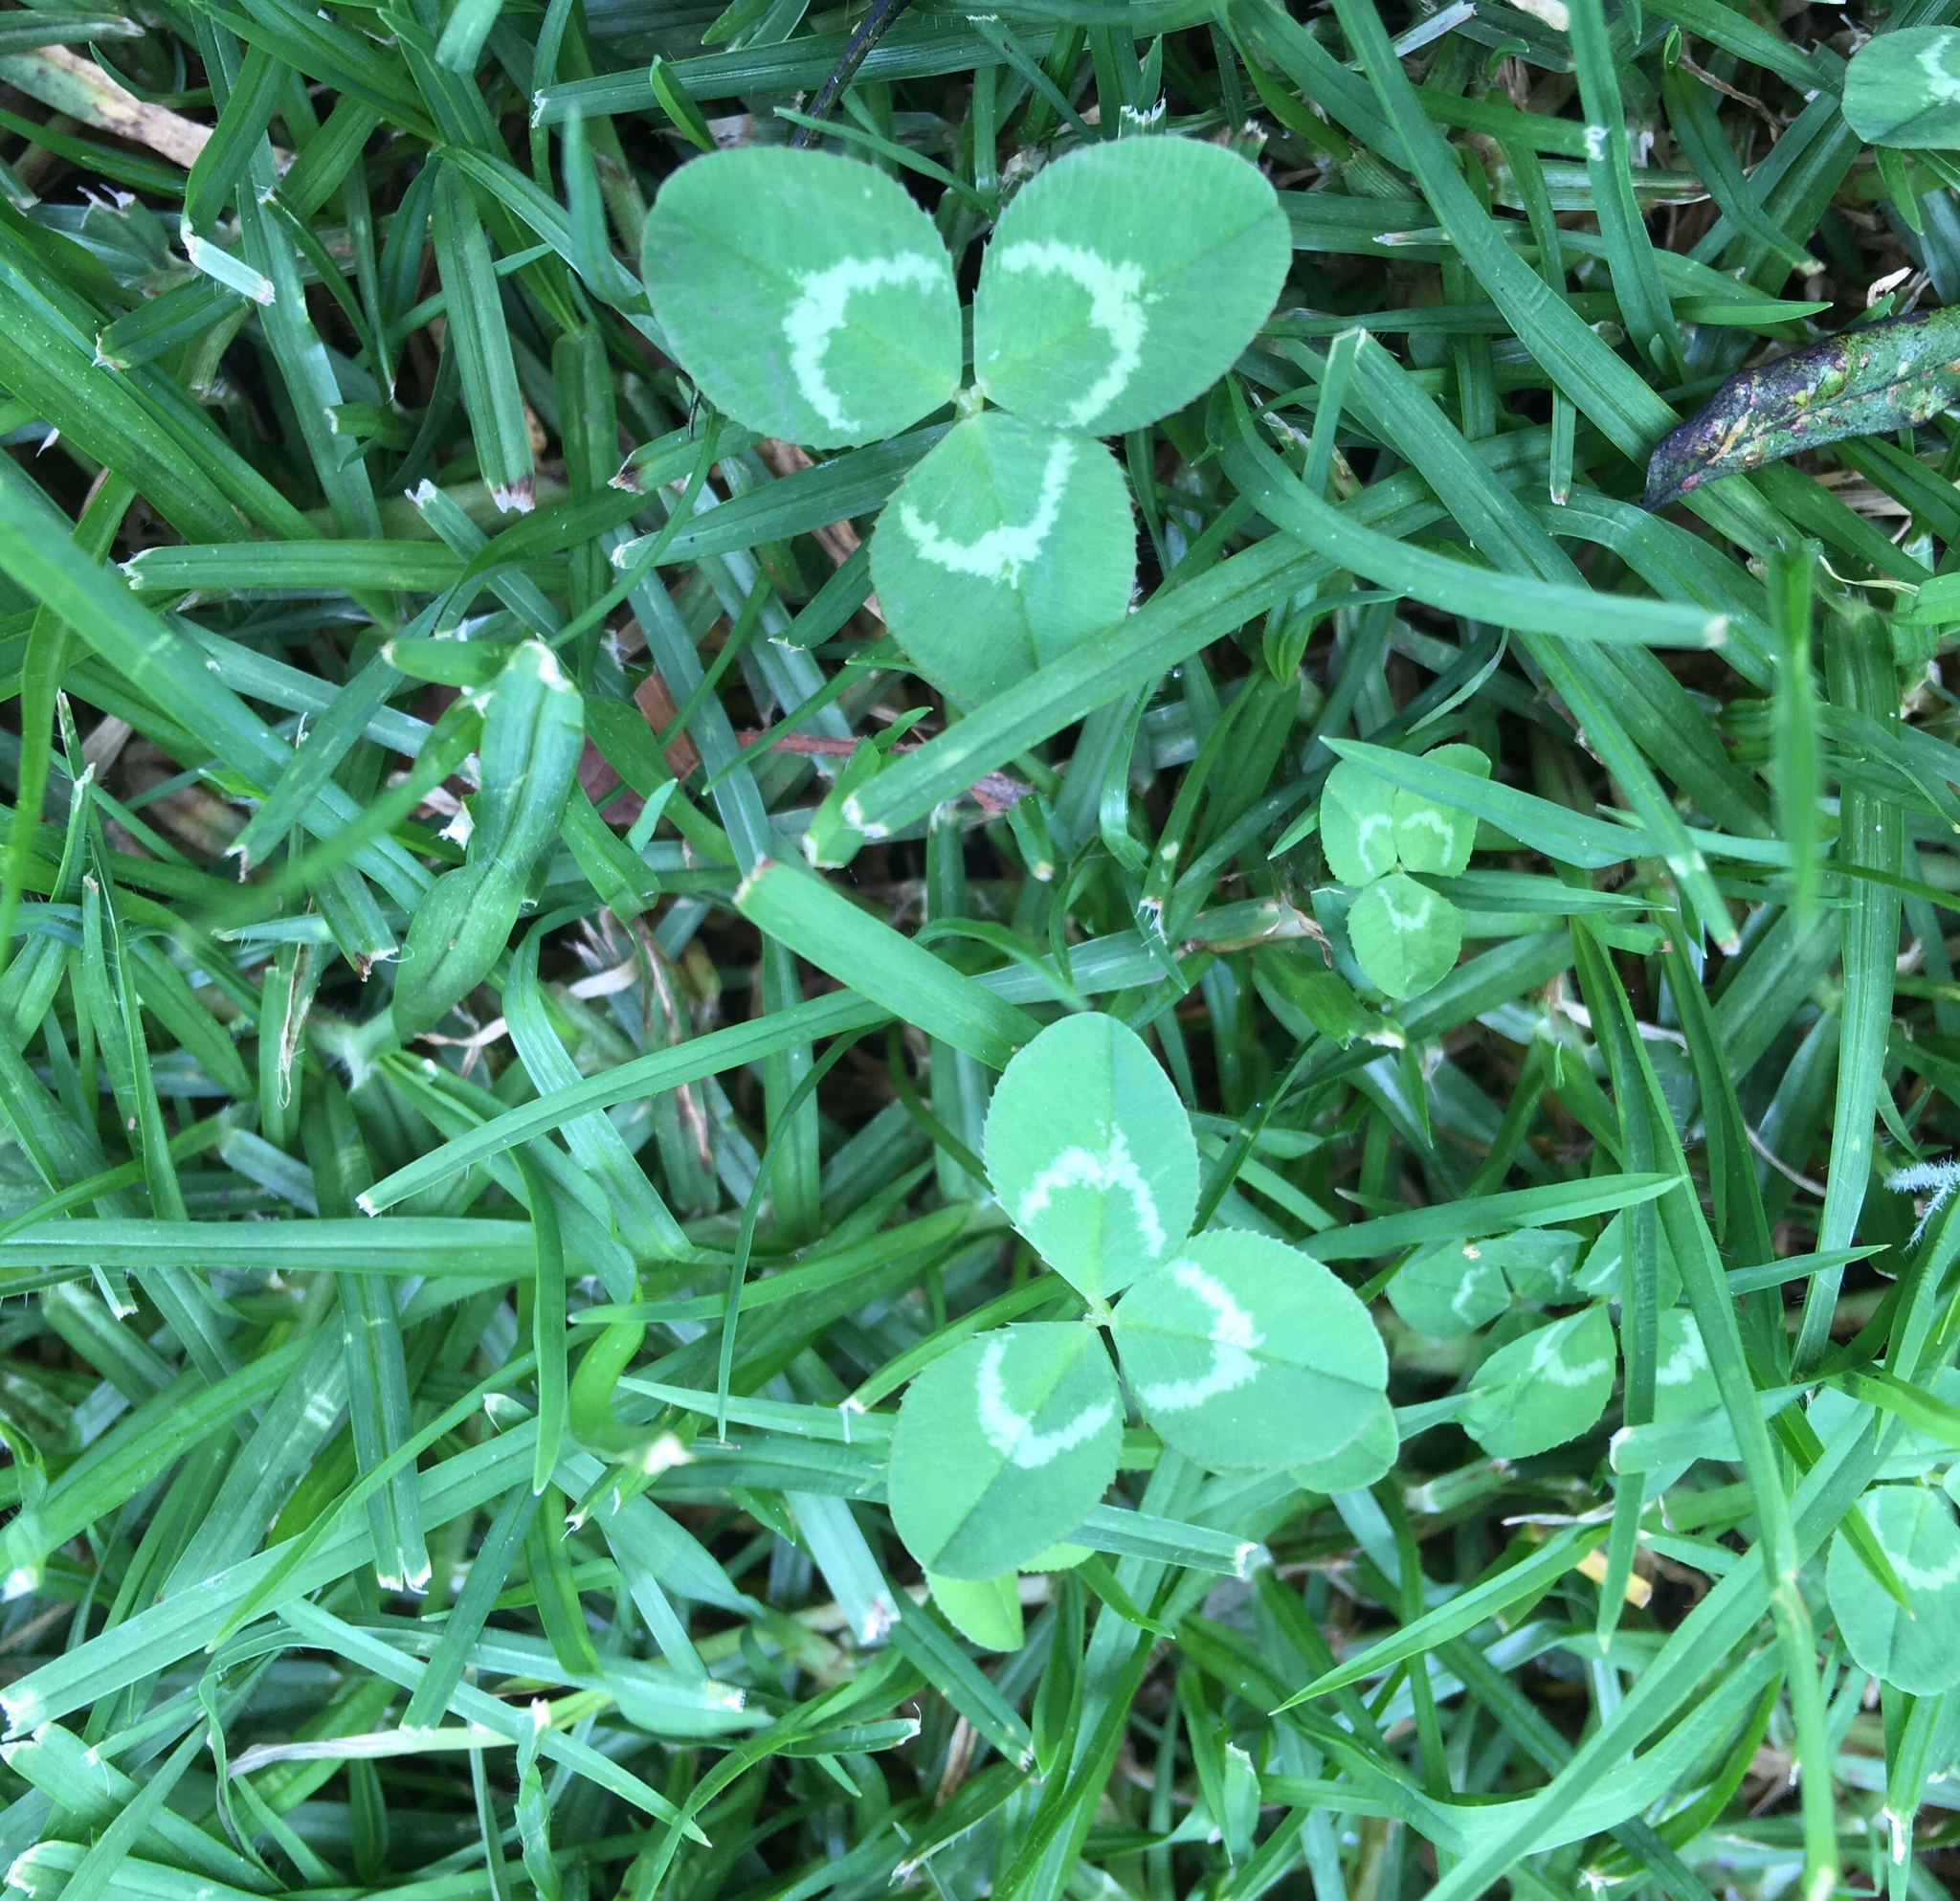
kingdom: Plantae
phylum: Tracheophyta
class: Magnoliopsida
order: Fabales
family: Fabaceae
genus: Trifolium
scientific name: Trifolium repens
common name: White clover
